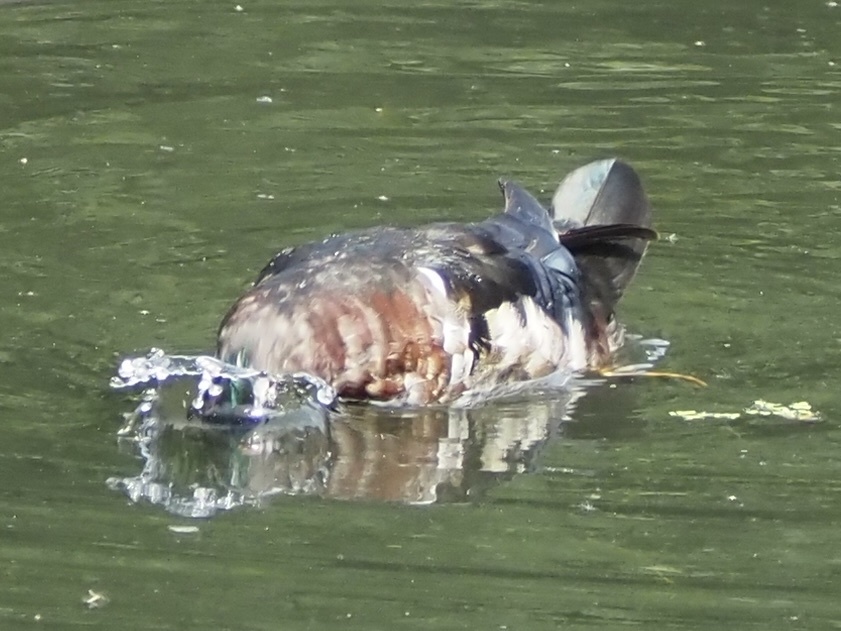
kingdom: Animalia
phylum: Chordata
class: Aves
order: Anseriformes
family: Anatidae
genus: Aix
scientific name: Aix sponsa
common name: Wood duck
